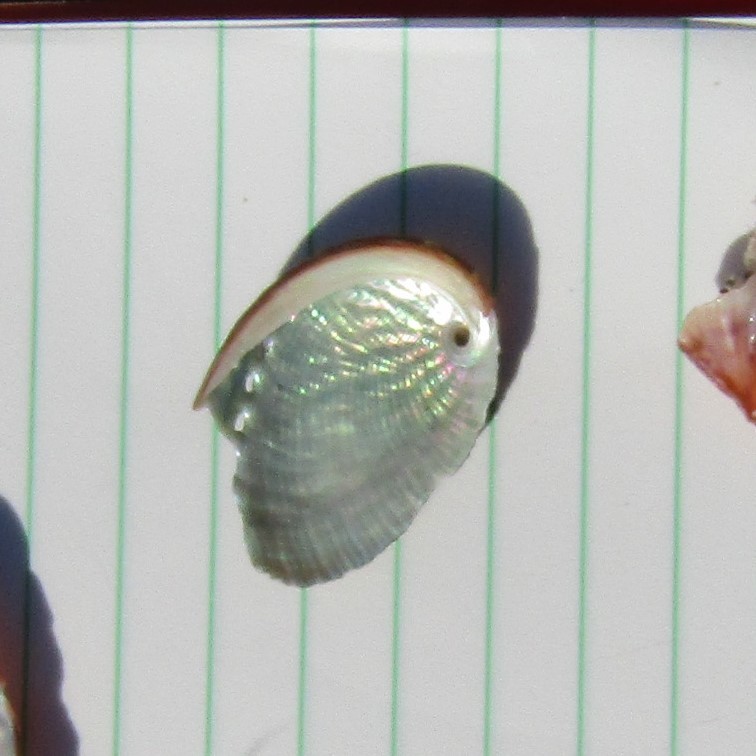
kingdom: Animalia
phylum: Mollusca
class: Gastropoda
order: Lepetellida
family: Haliotidae
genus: Haliotis
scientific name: Haliotis virginea
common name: Whitefoot paua
